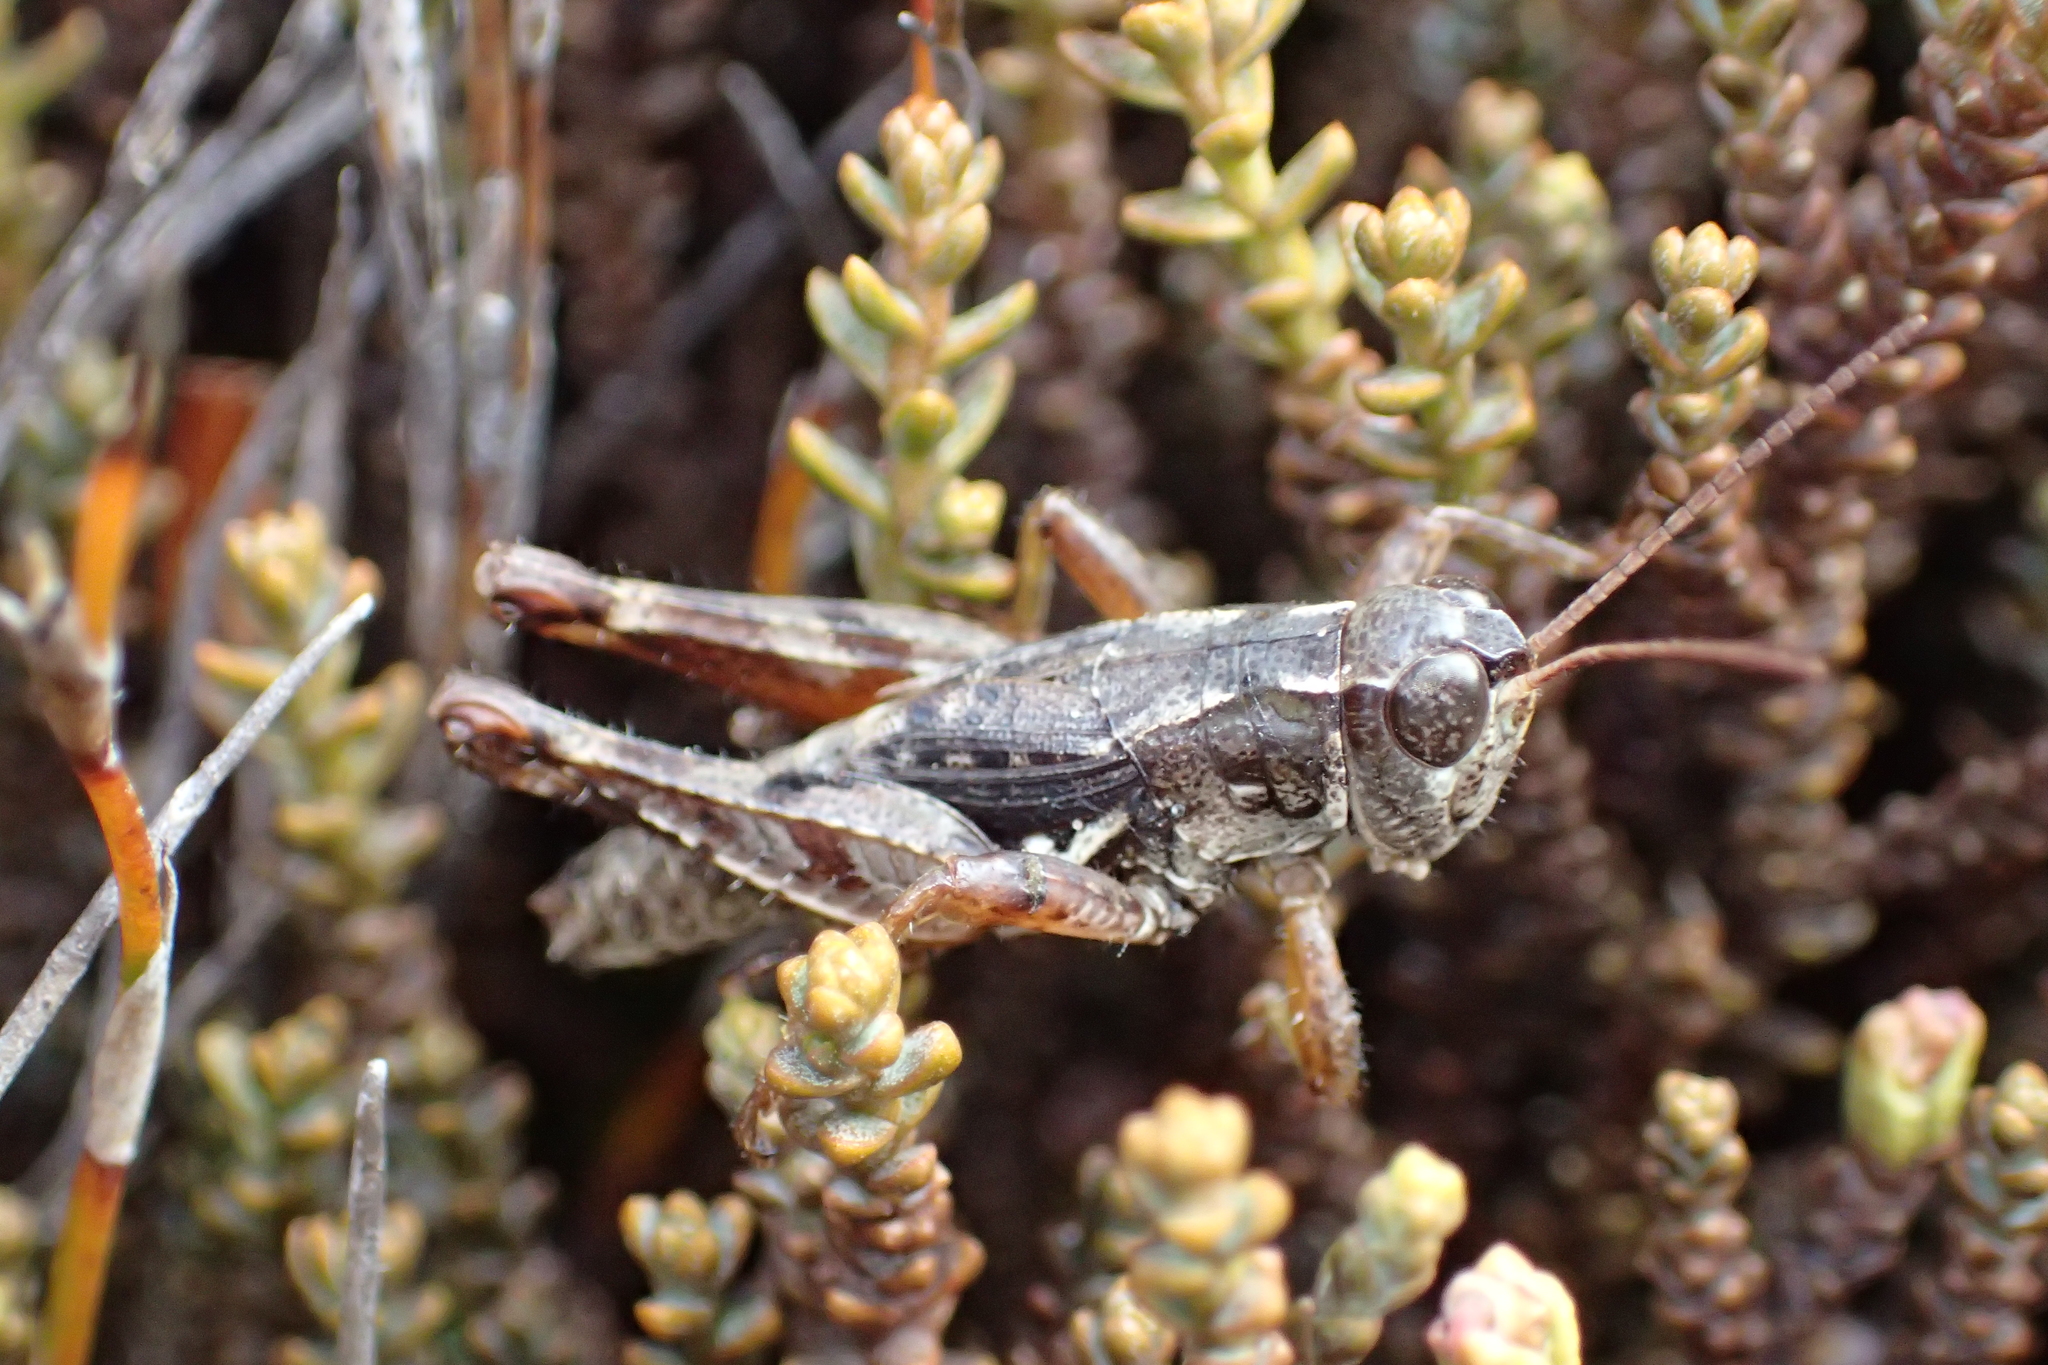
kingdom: Animalia
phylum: Arthropoda
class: Insecta
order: Orthoptera
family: Acrididae
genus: Phaulacridium
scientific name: Phaulacridium marginale
